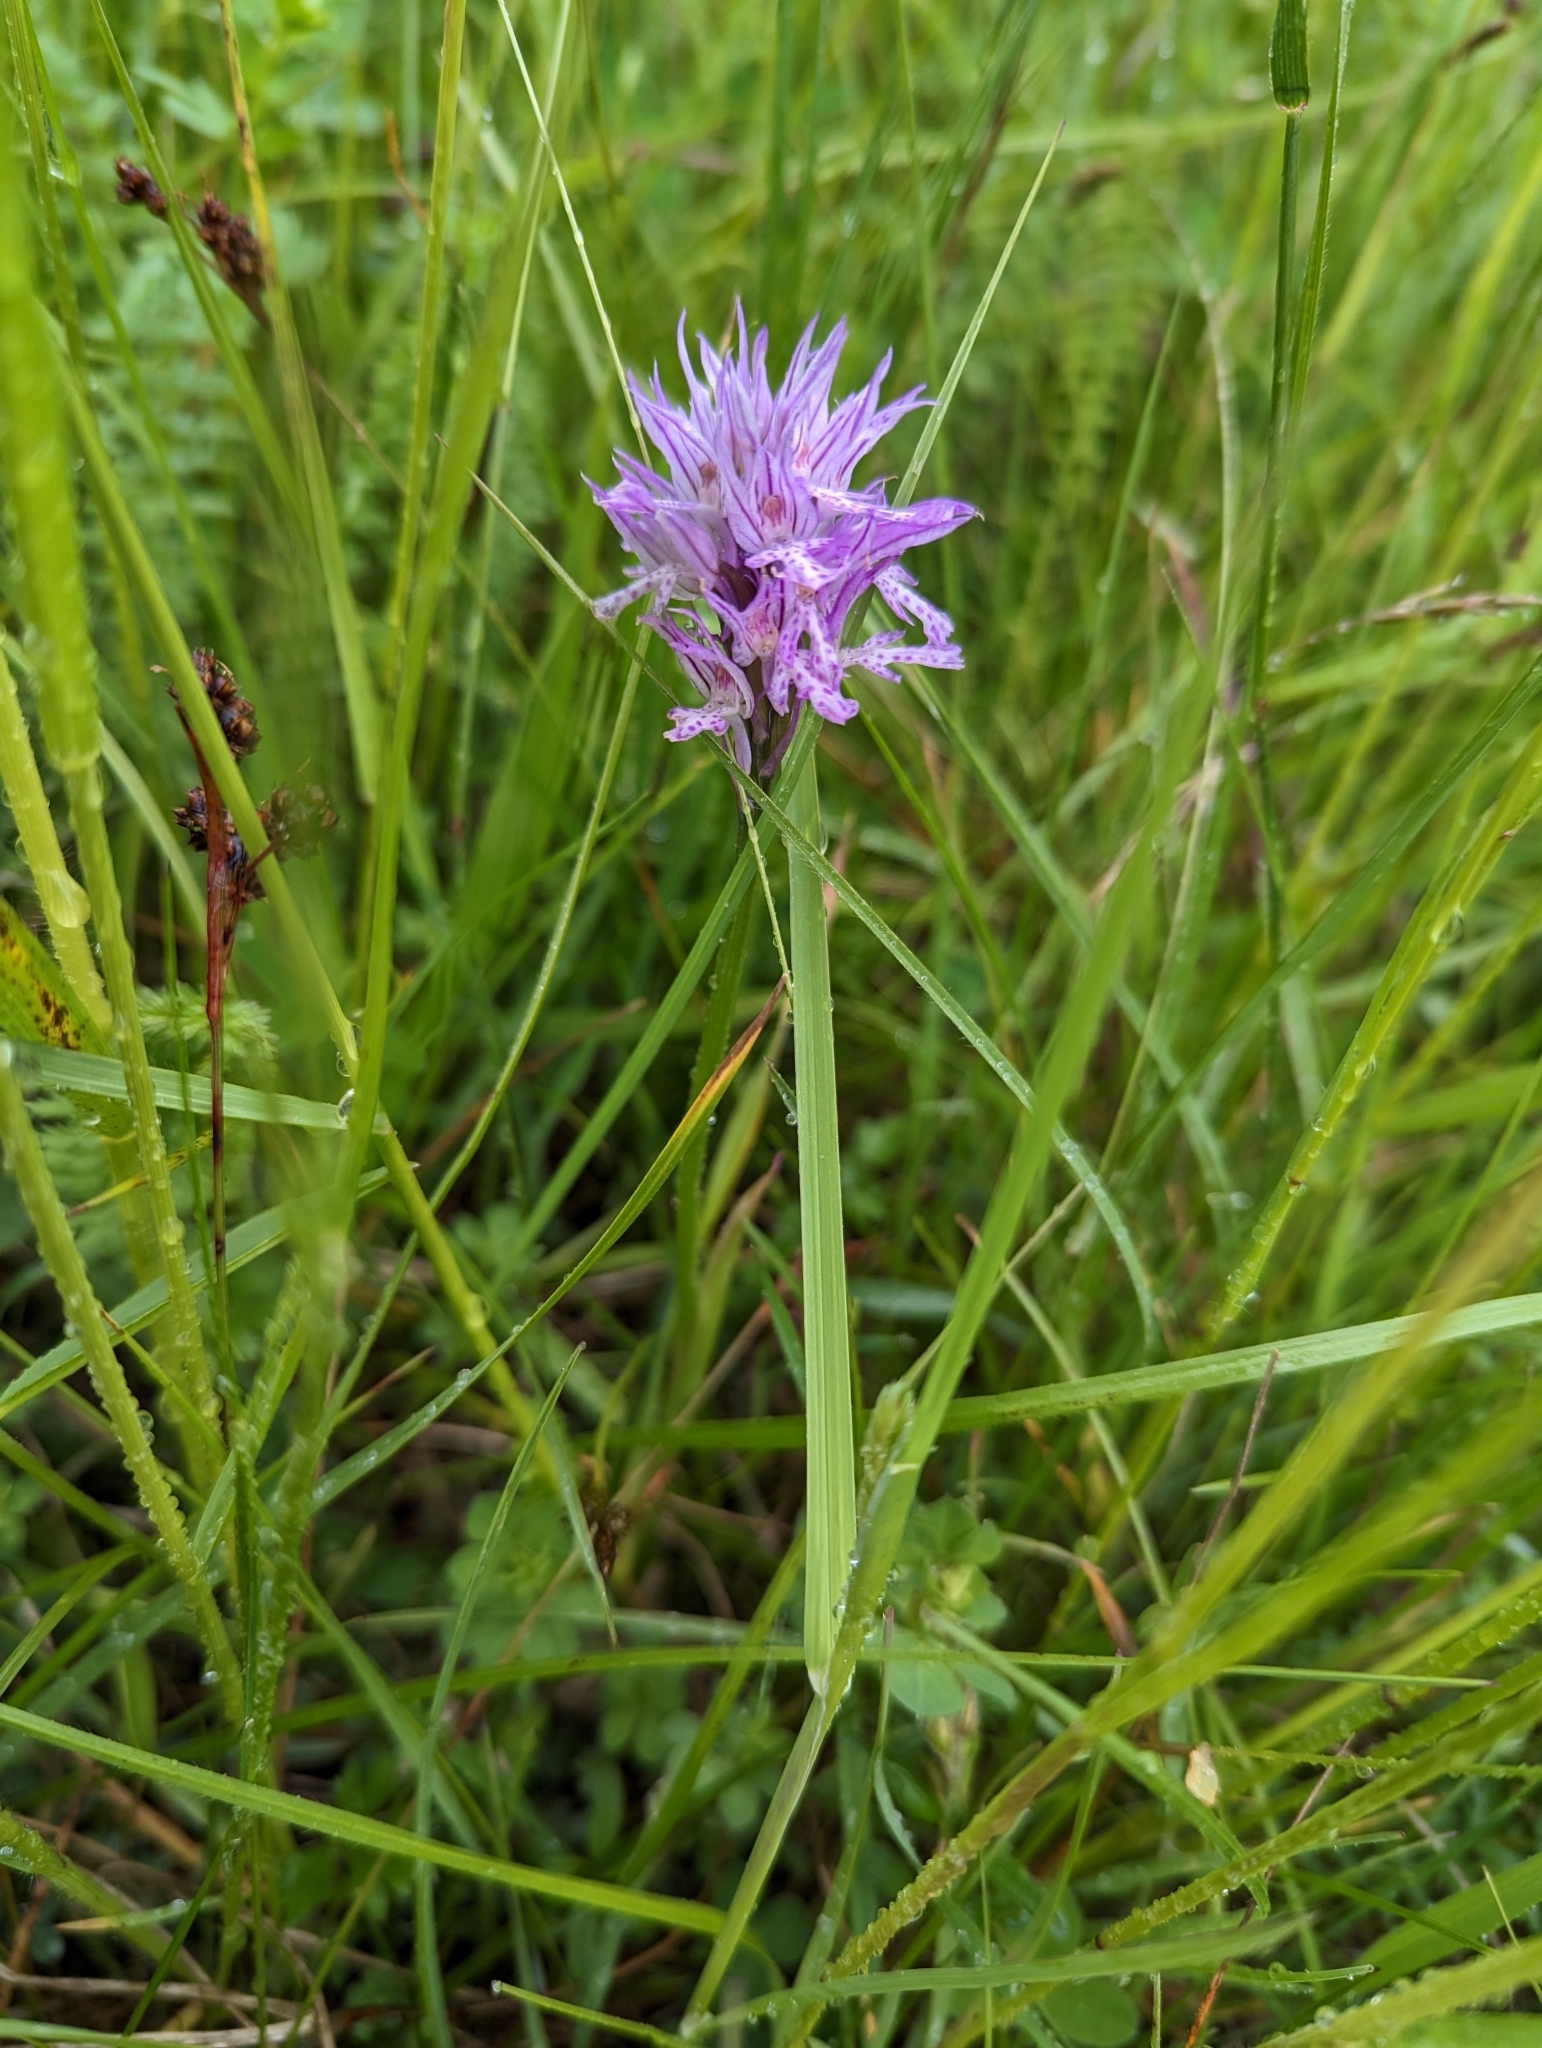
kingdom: Plantae
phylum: Tracheophyta
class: Liliopsida
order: Asparagales
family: Orchidaceae
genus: Neotinea
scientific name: Neotinea tridentata
